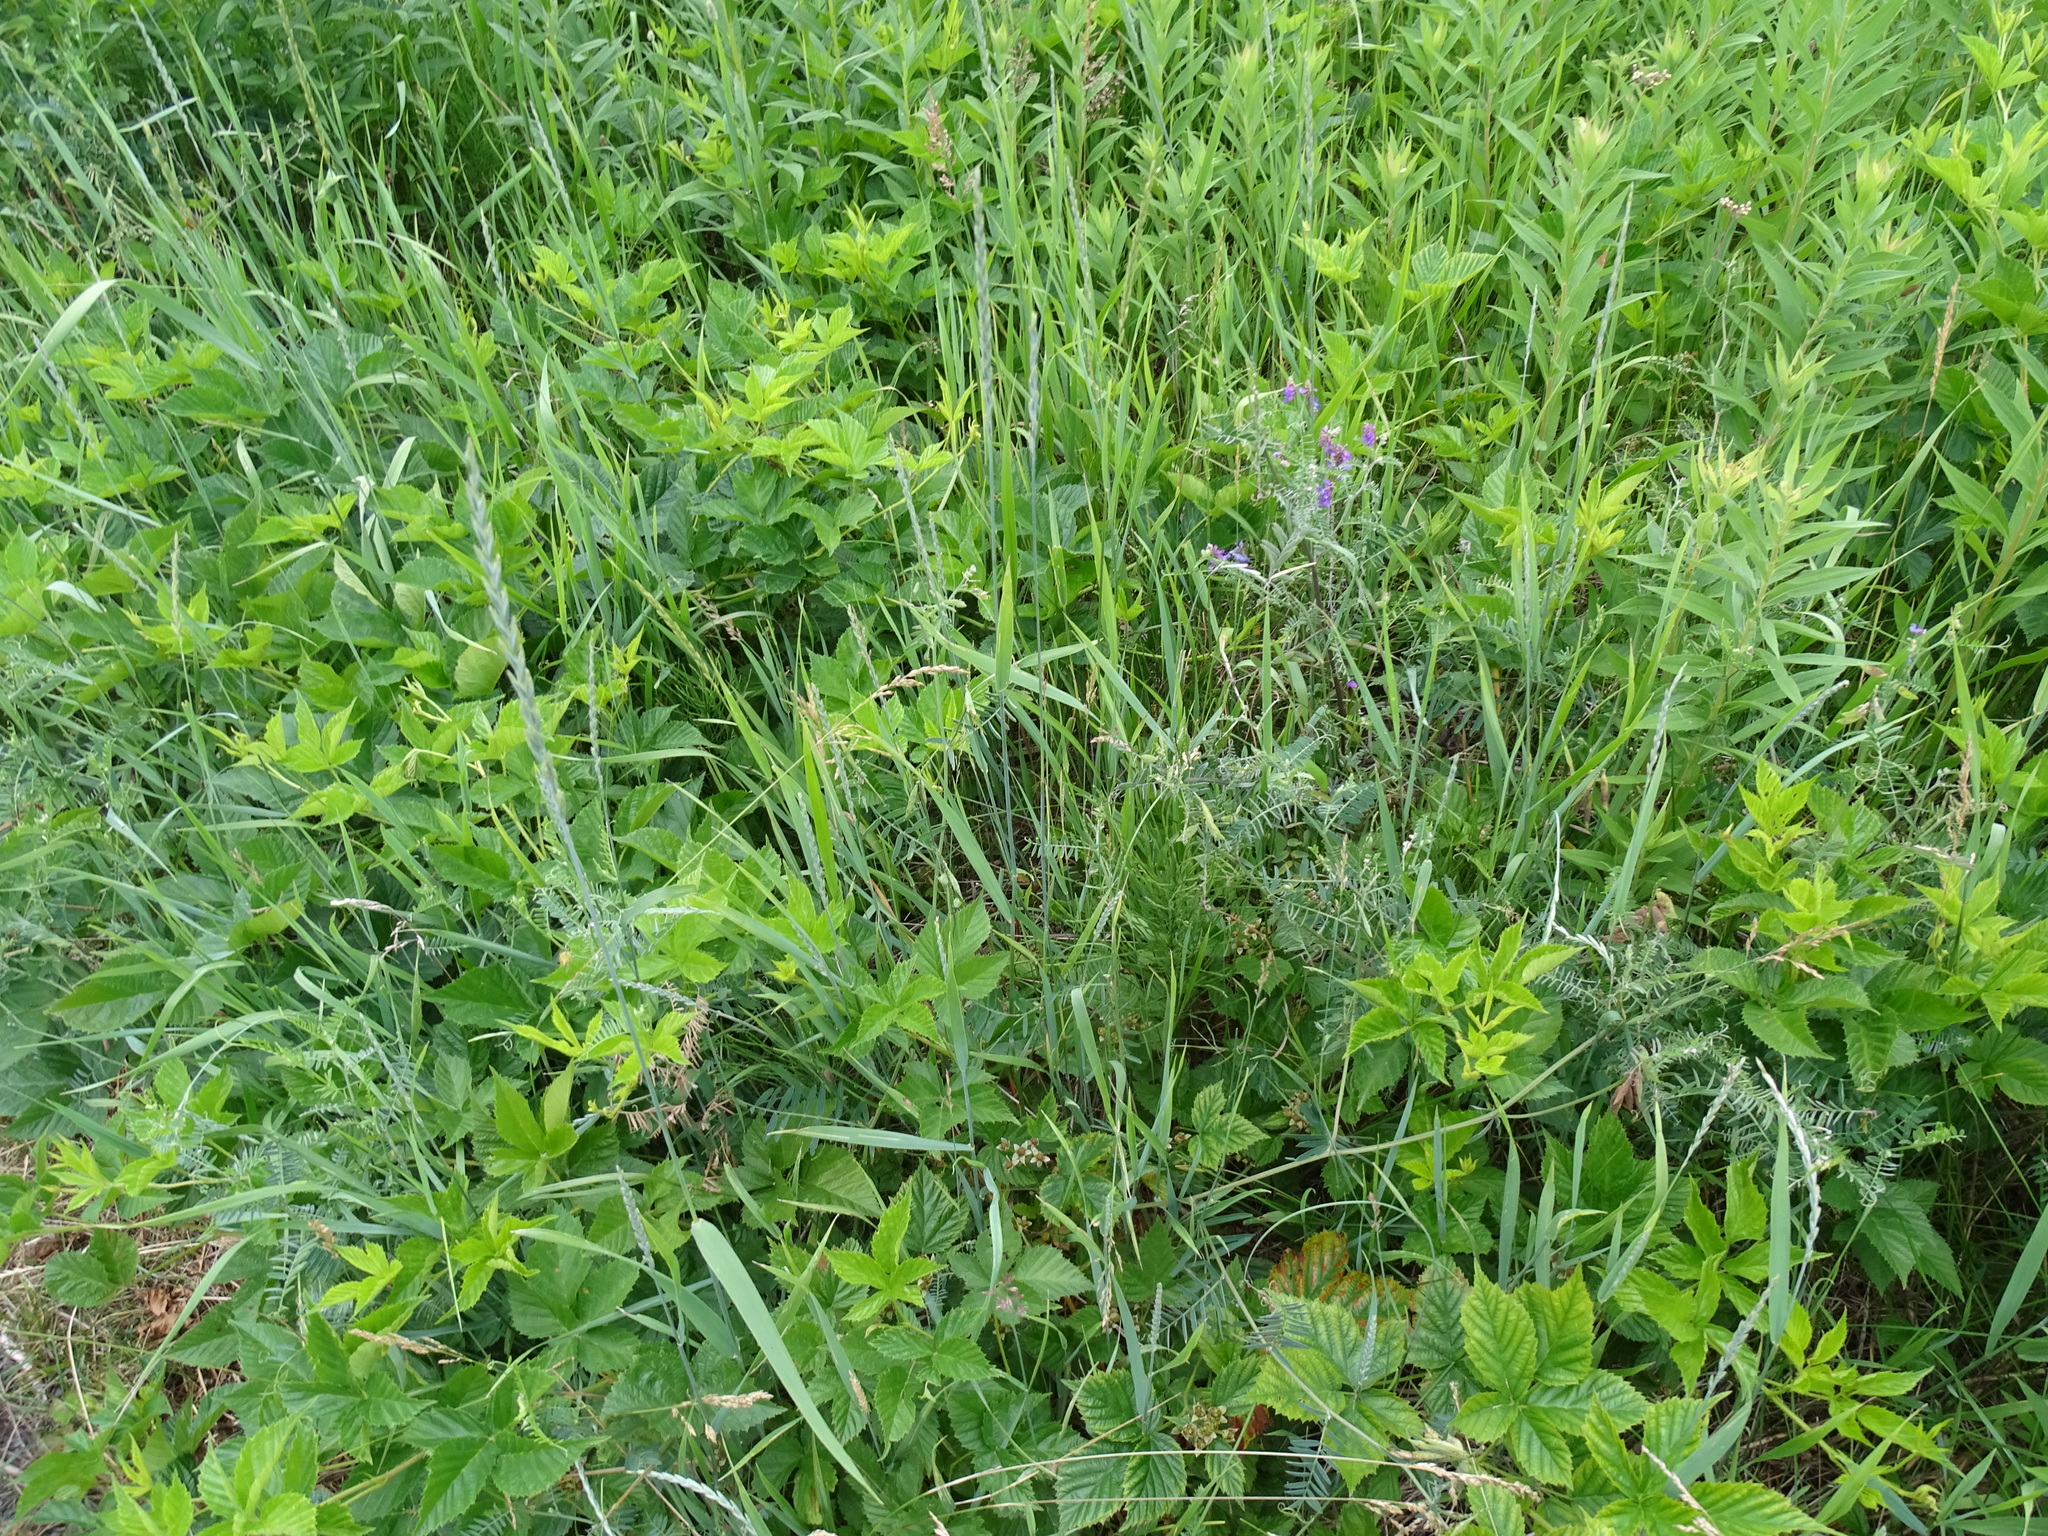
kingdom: Plantae
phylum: Tracheophyta
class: Liliopsida
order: Poales
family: Poaceae
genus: Elymus
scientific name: Elymus repens
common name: Quackgrass
